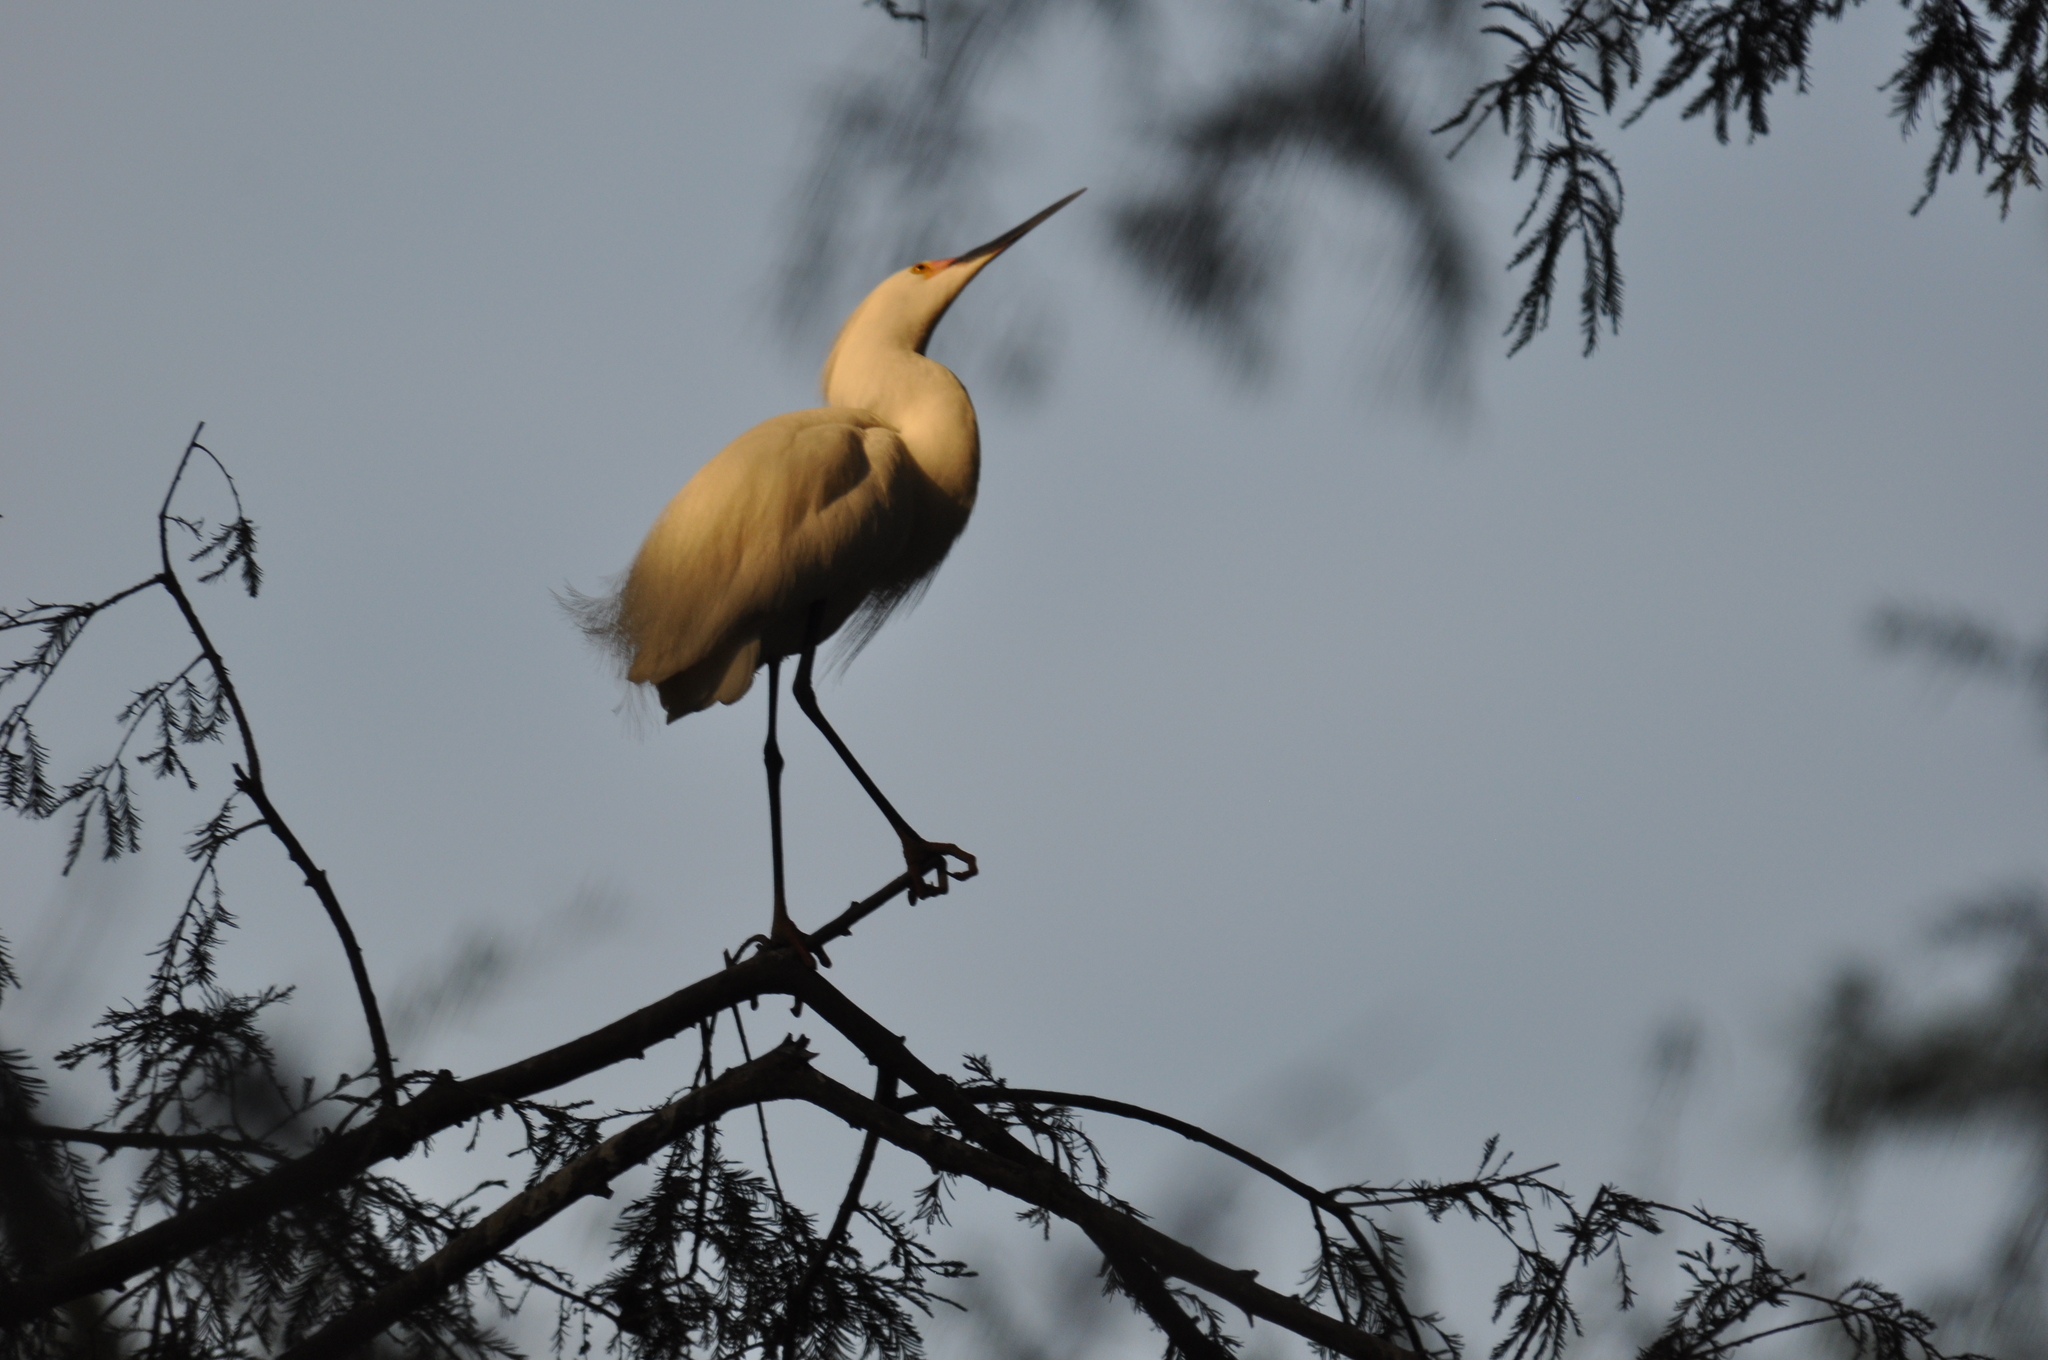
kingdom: Animalia
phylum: Chordata
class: Aves
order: Pelecaniformes
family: Ardeidae
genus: Egretta
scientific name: Egretta thula
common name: Snowy egret
